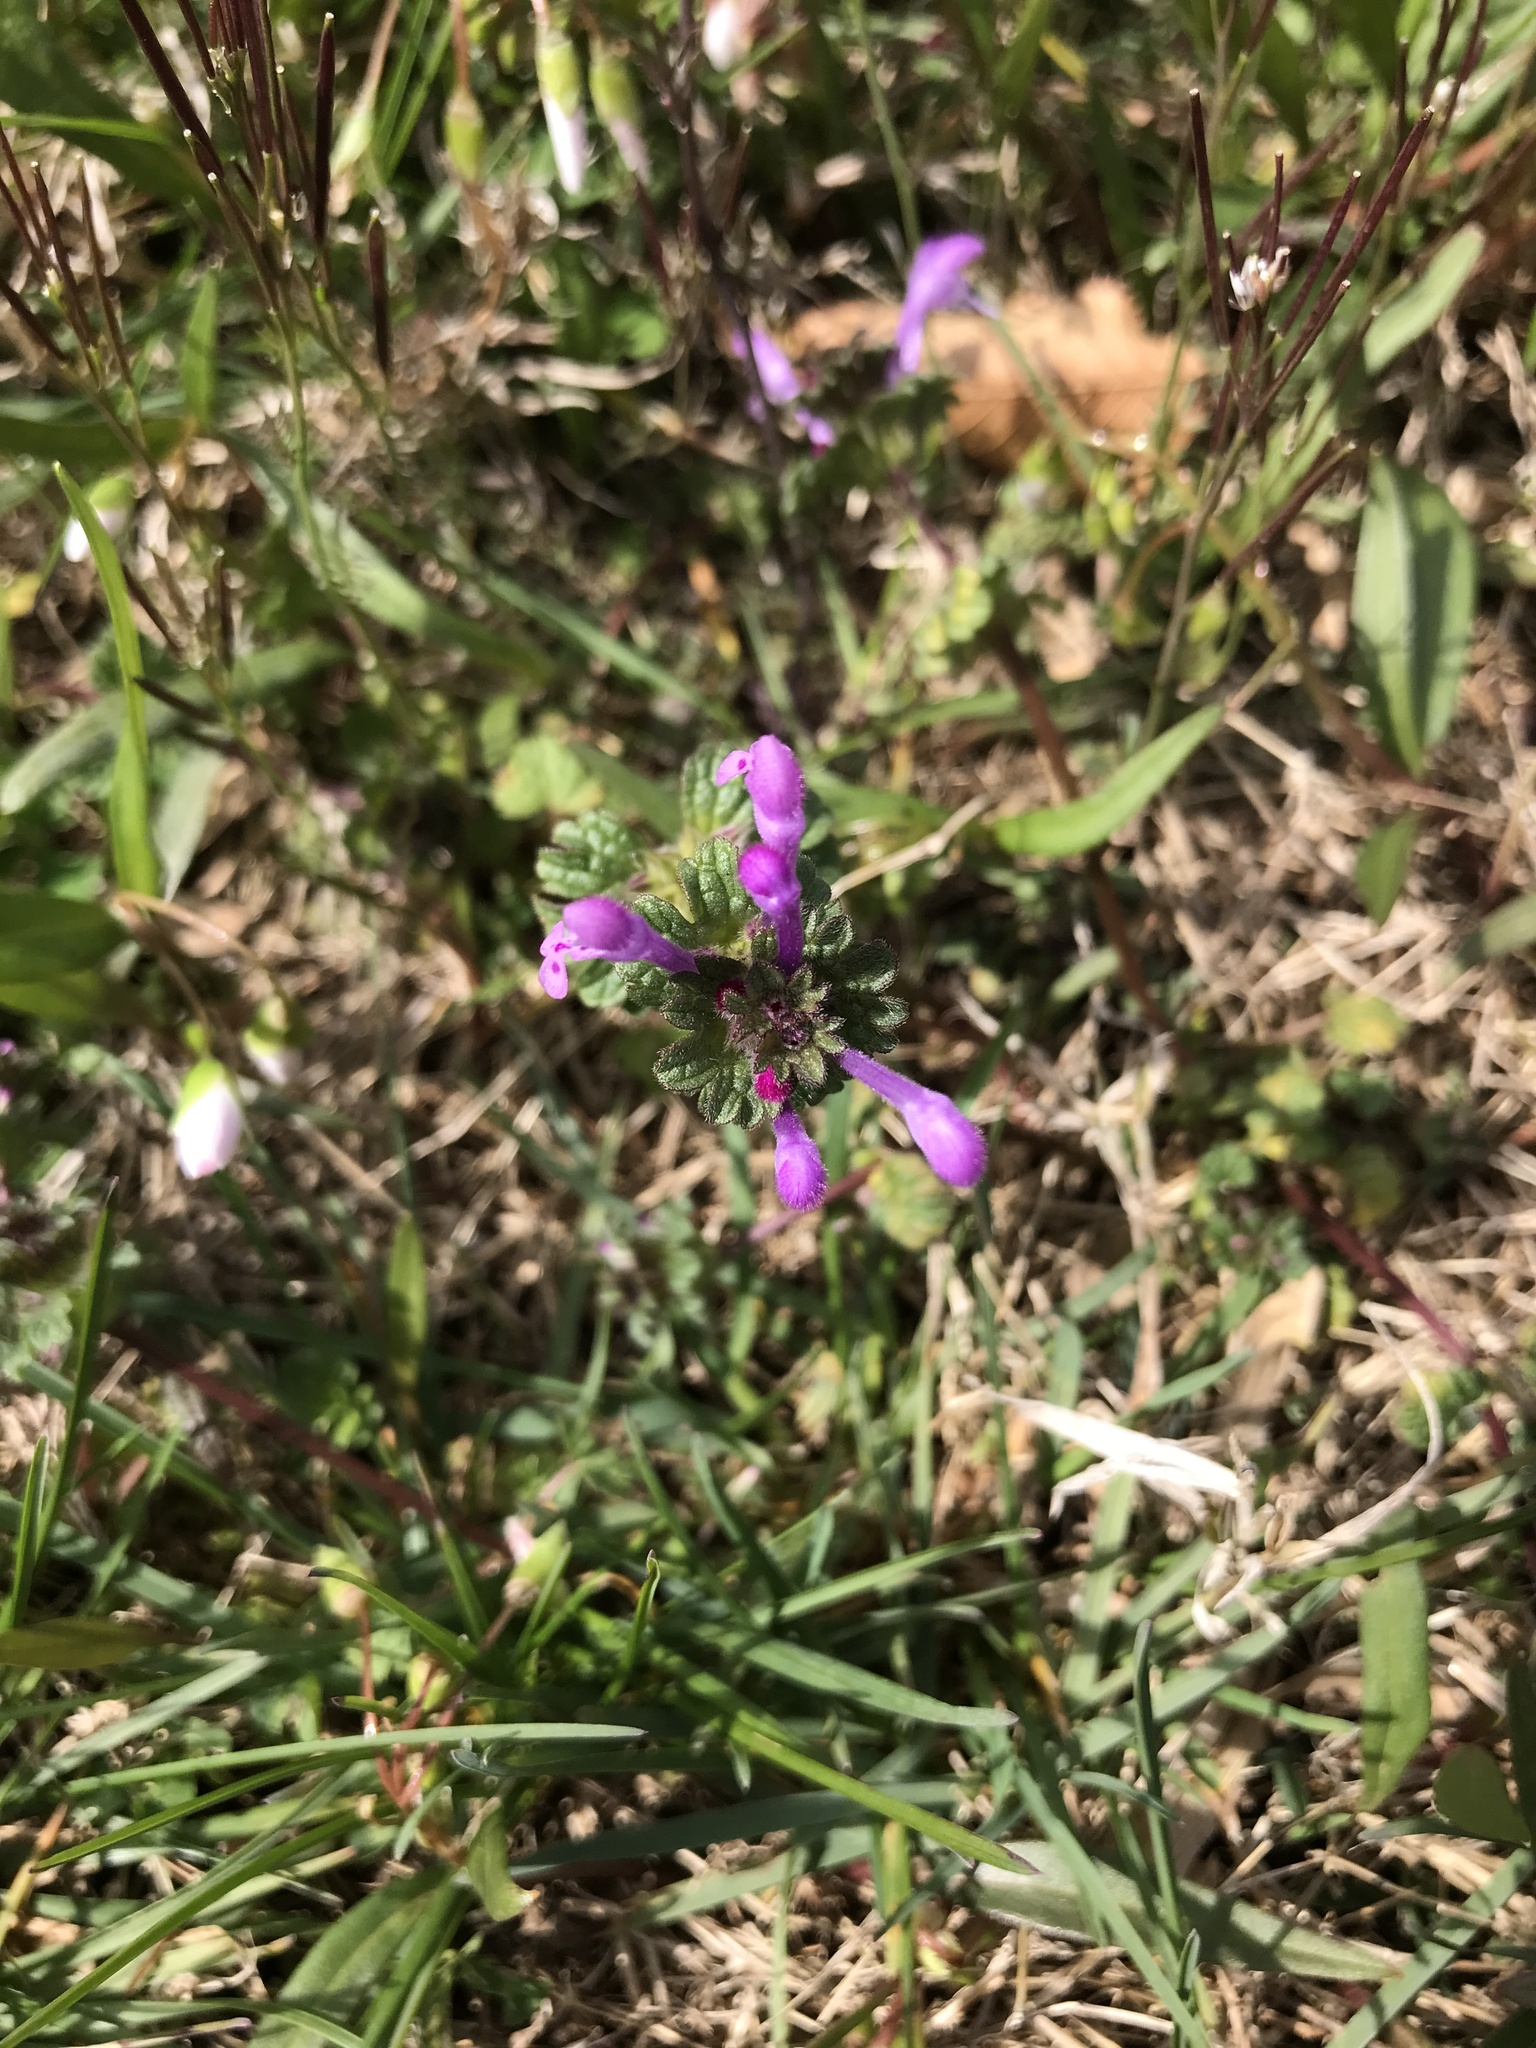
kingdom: Plantae
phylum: Tracheophyta
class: Magnoliopsida
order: Lamiales
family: Lamiaceae
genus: Lamium
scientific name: Lamium amplexicaule
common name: Henbit dead-nettle
